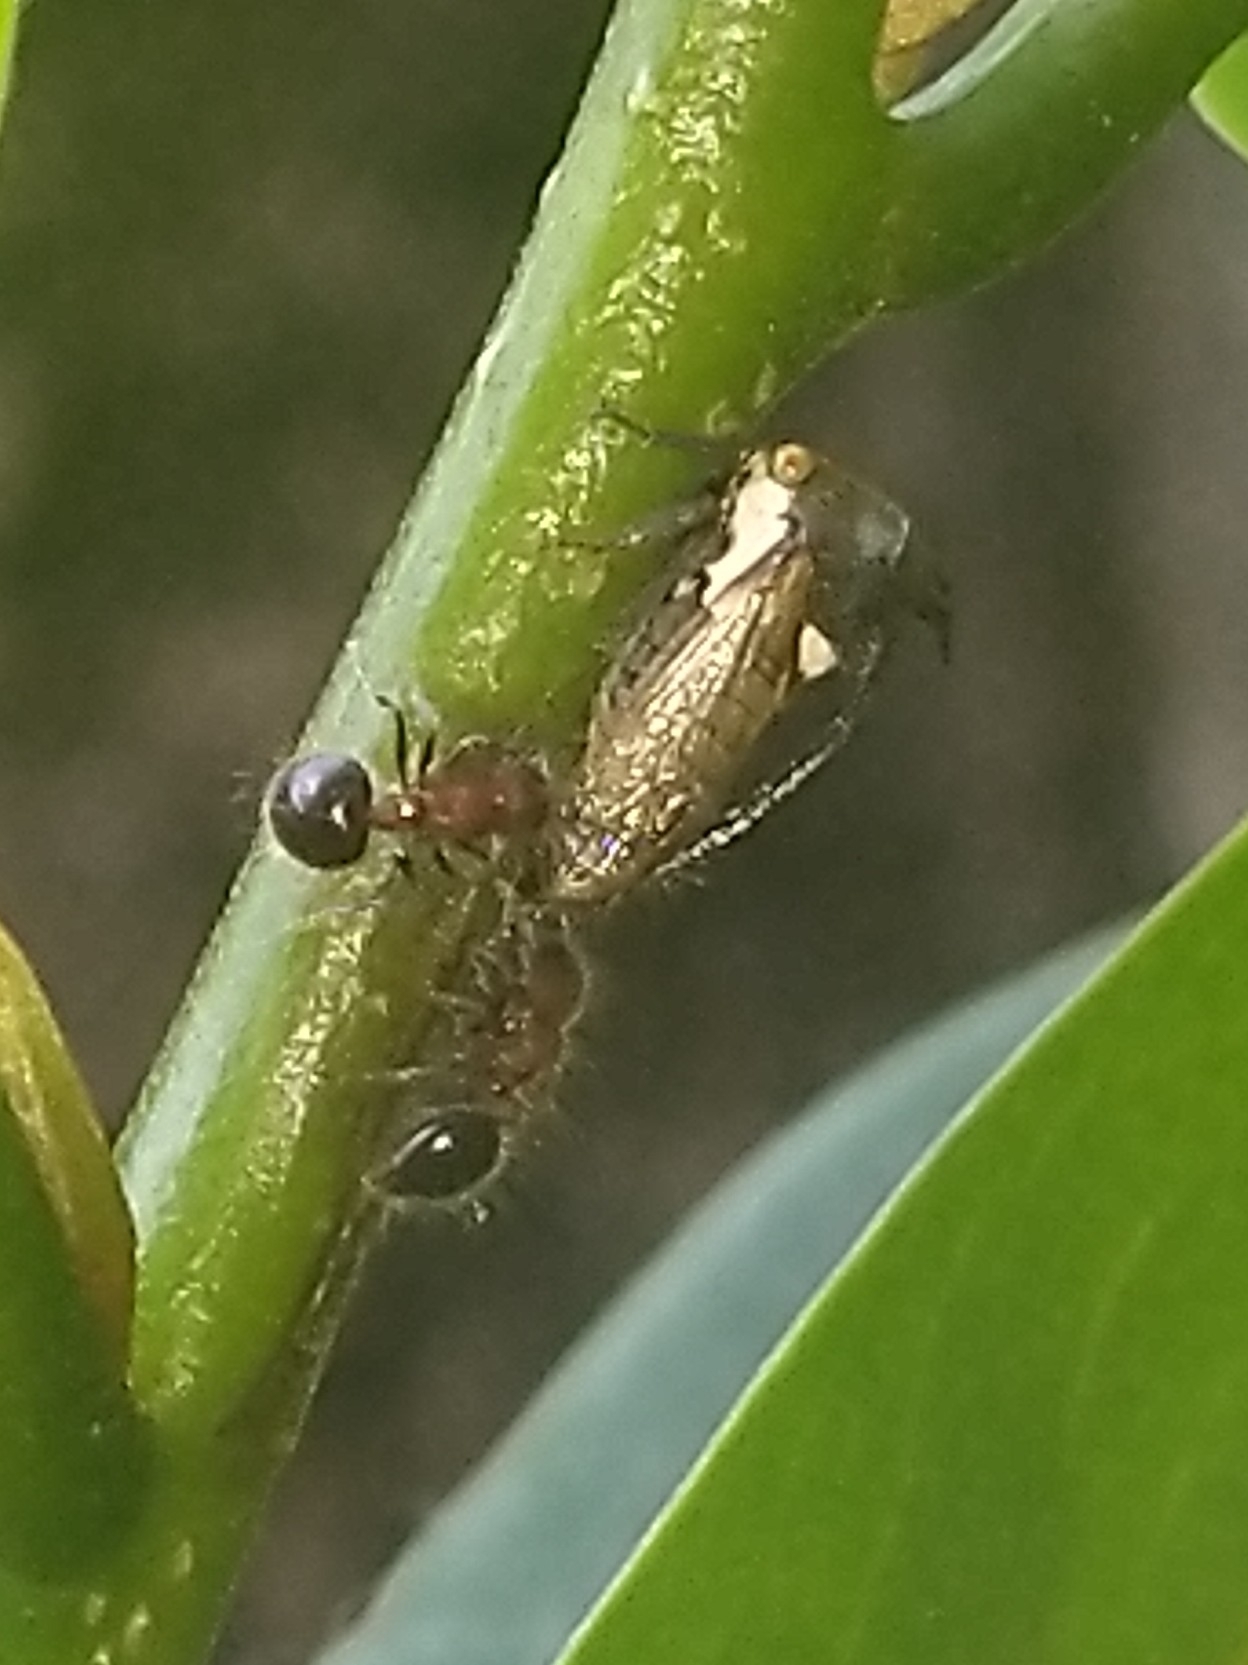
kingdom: Animalia
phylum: Arthropoda
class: Insecta
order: Hymenoptera
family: Formicidae
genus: Meranoplus
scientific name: Meranoplus bicolor
